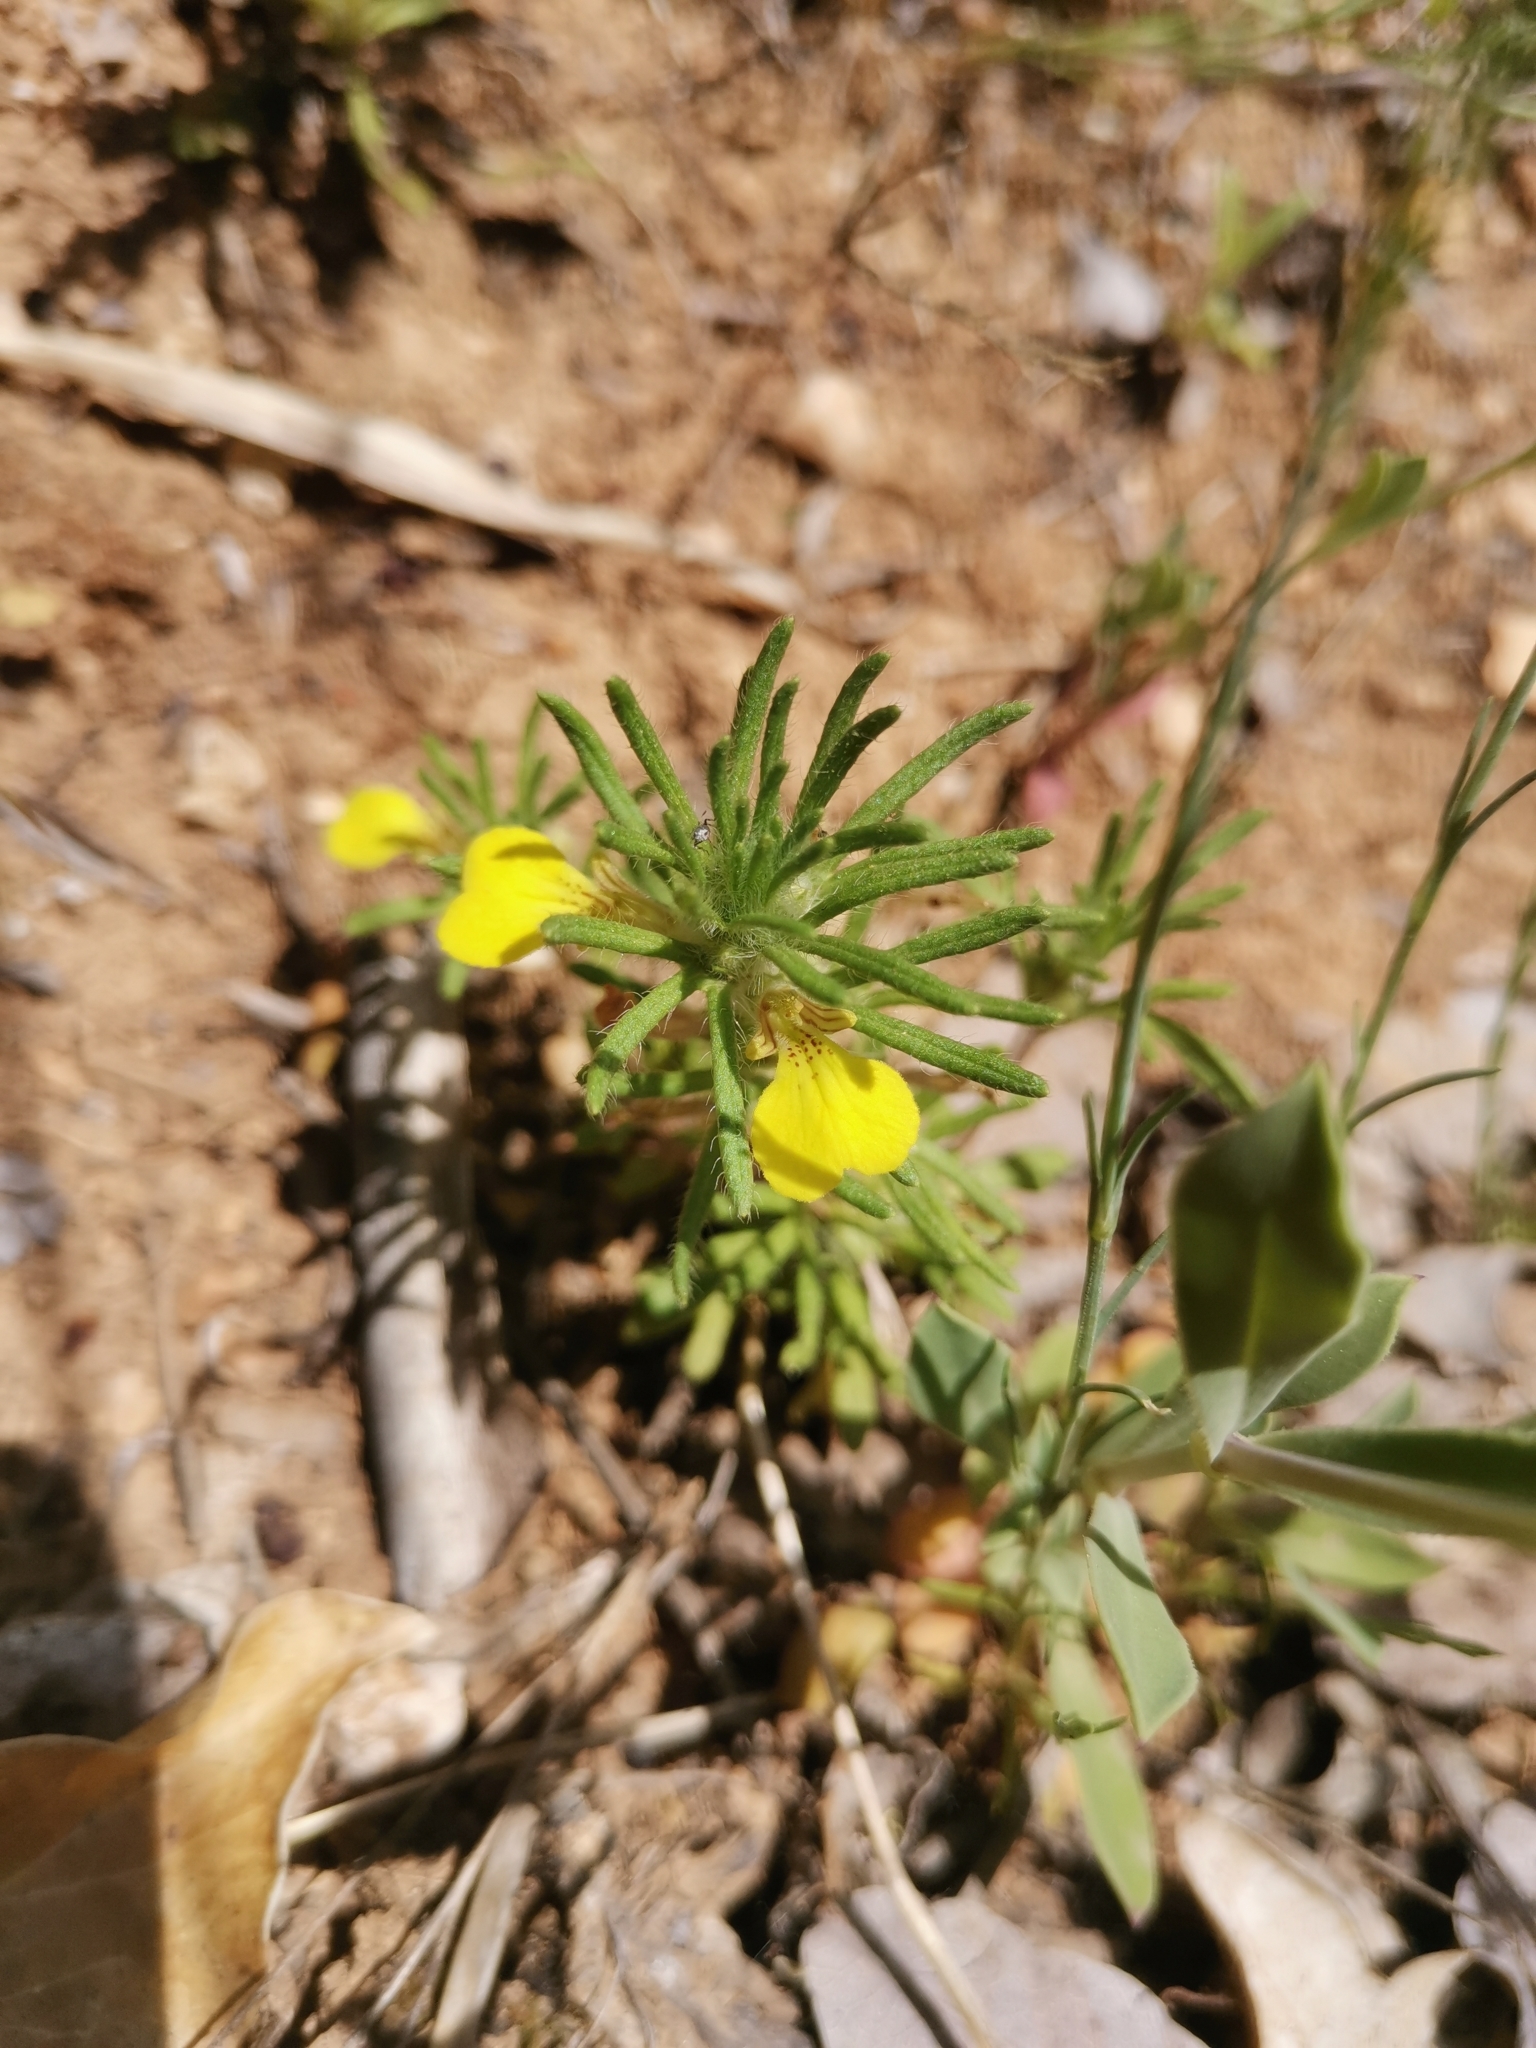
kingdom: Plantae
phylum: Tracheophyta
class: Magnoliopsida
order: Lamiales
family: Lamiaceae
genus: Ajuga
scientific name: Ajuga chamaepitys
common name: Ground-pine
